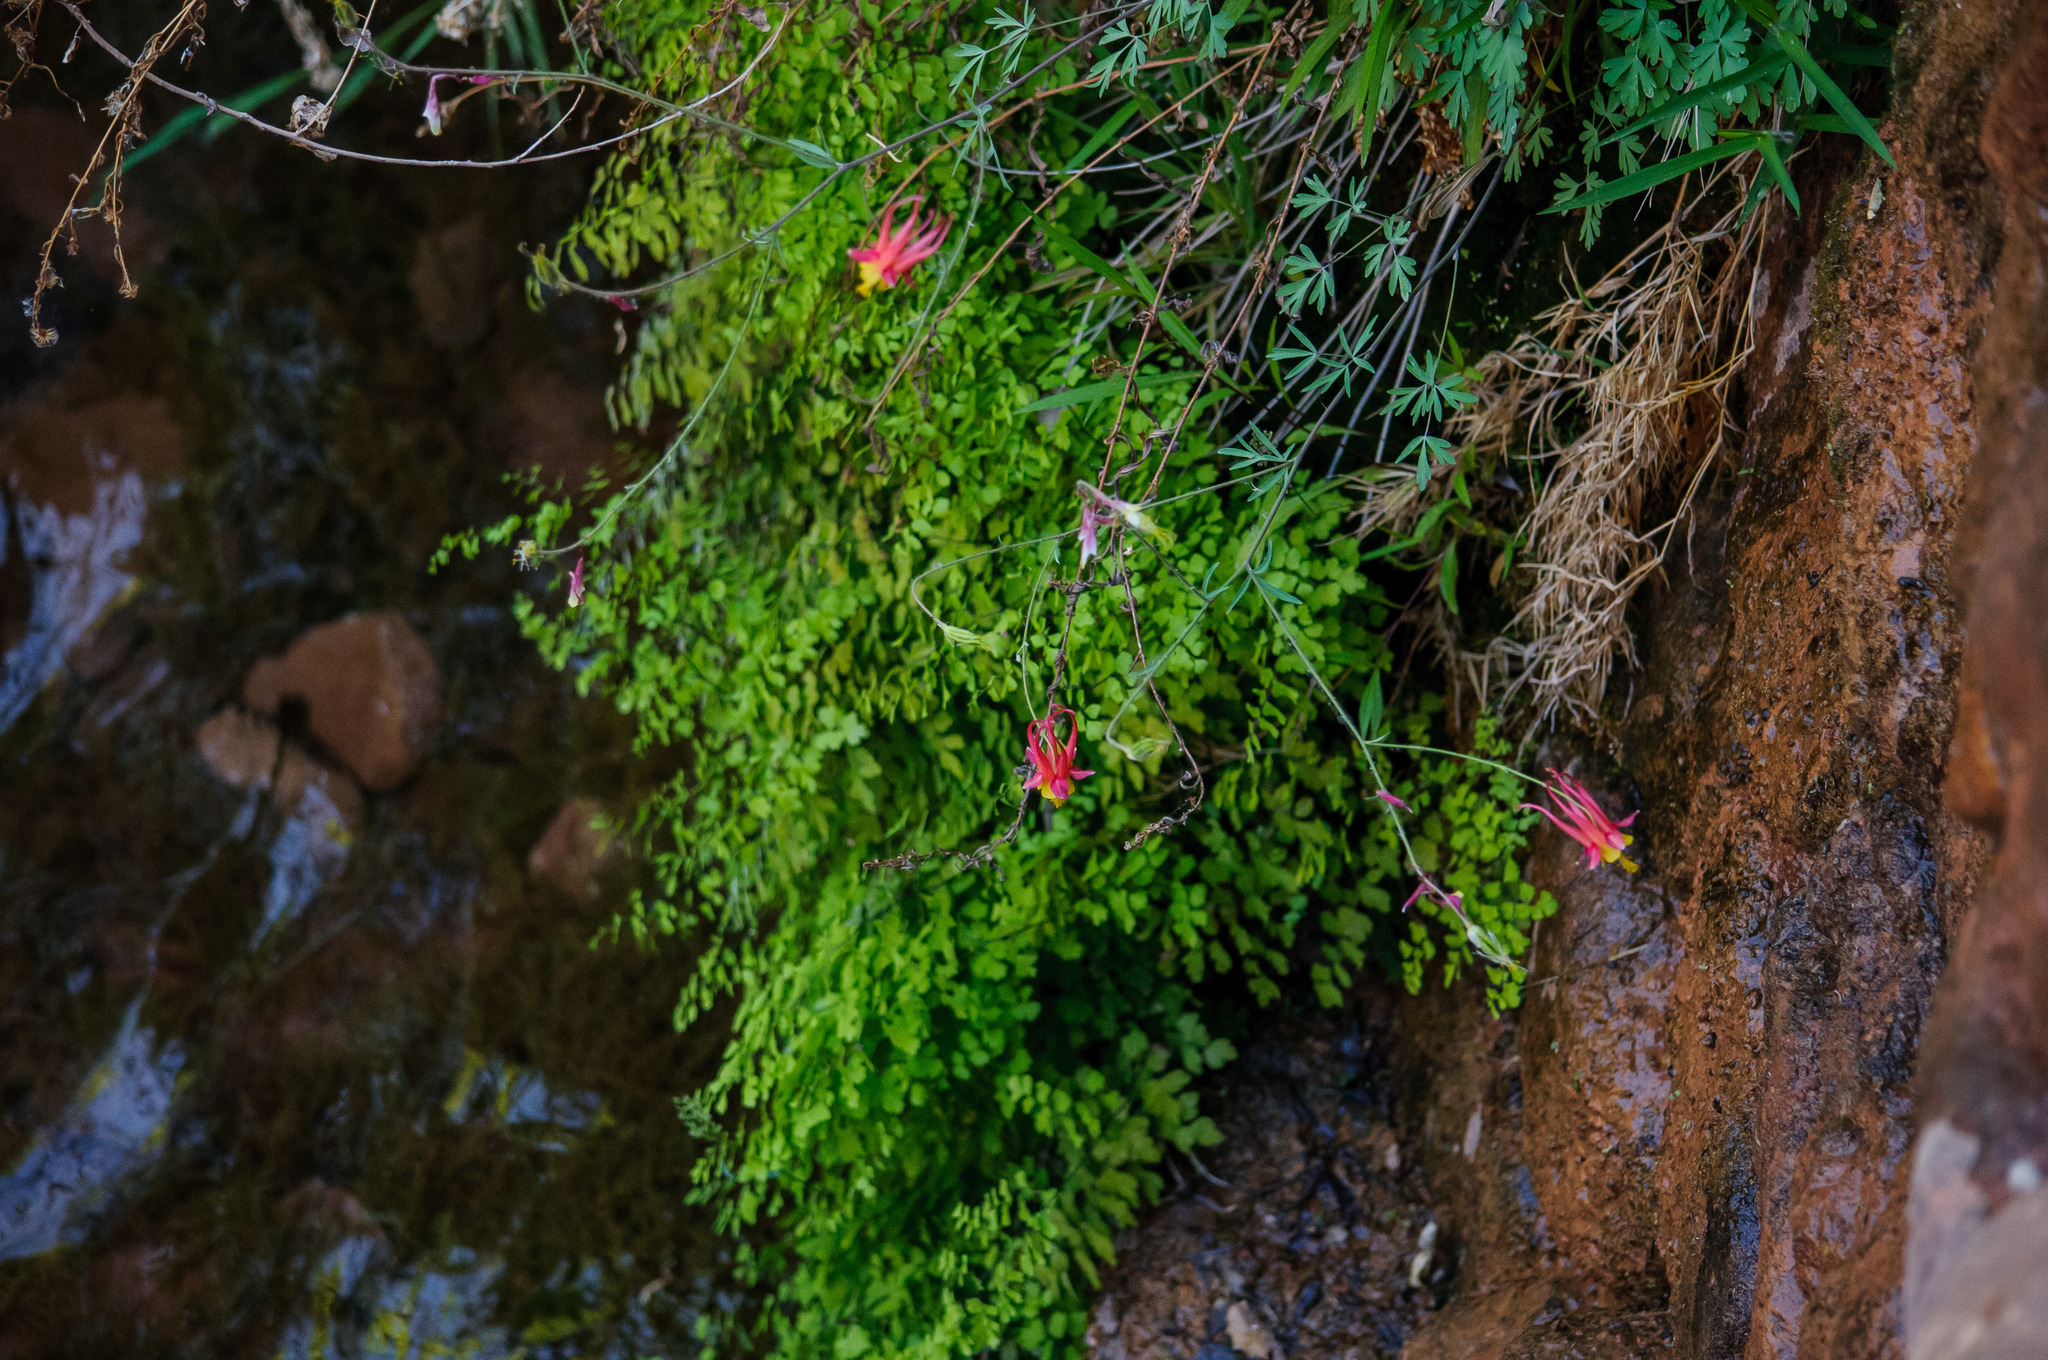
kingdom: Plantae
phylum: Tracheophyta
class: Magnoliopsida
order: Ranunculales
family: Ranunculaceae
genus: Aquilegia
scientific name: Aquilegia desertorum
